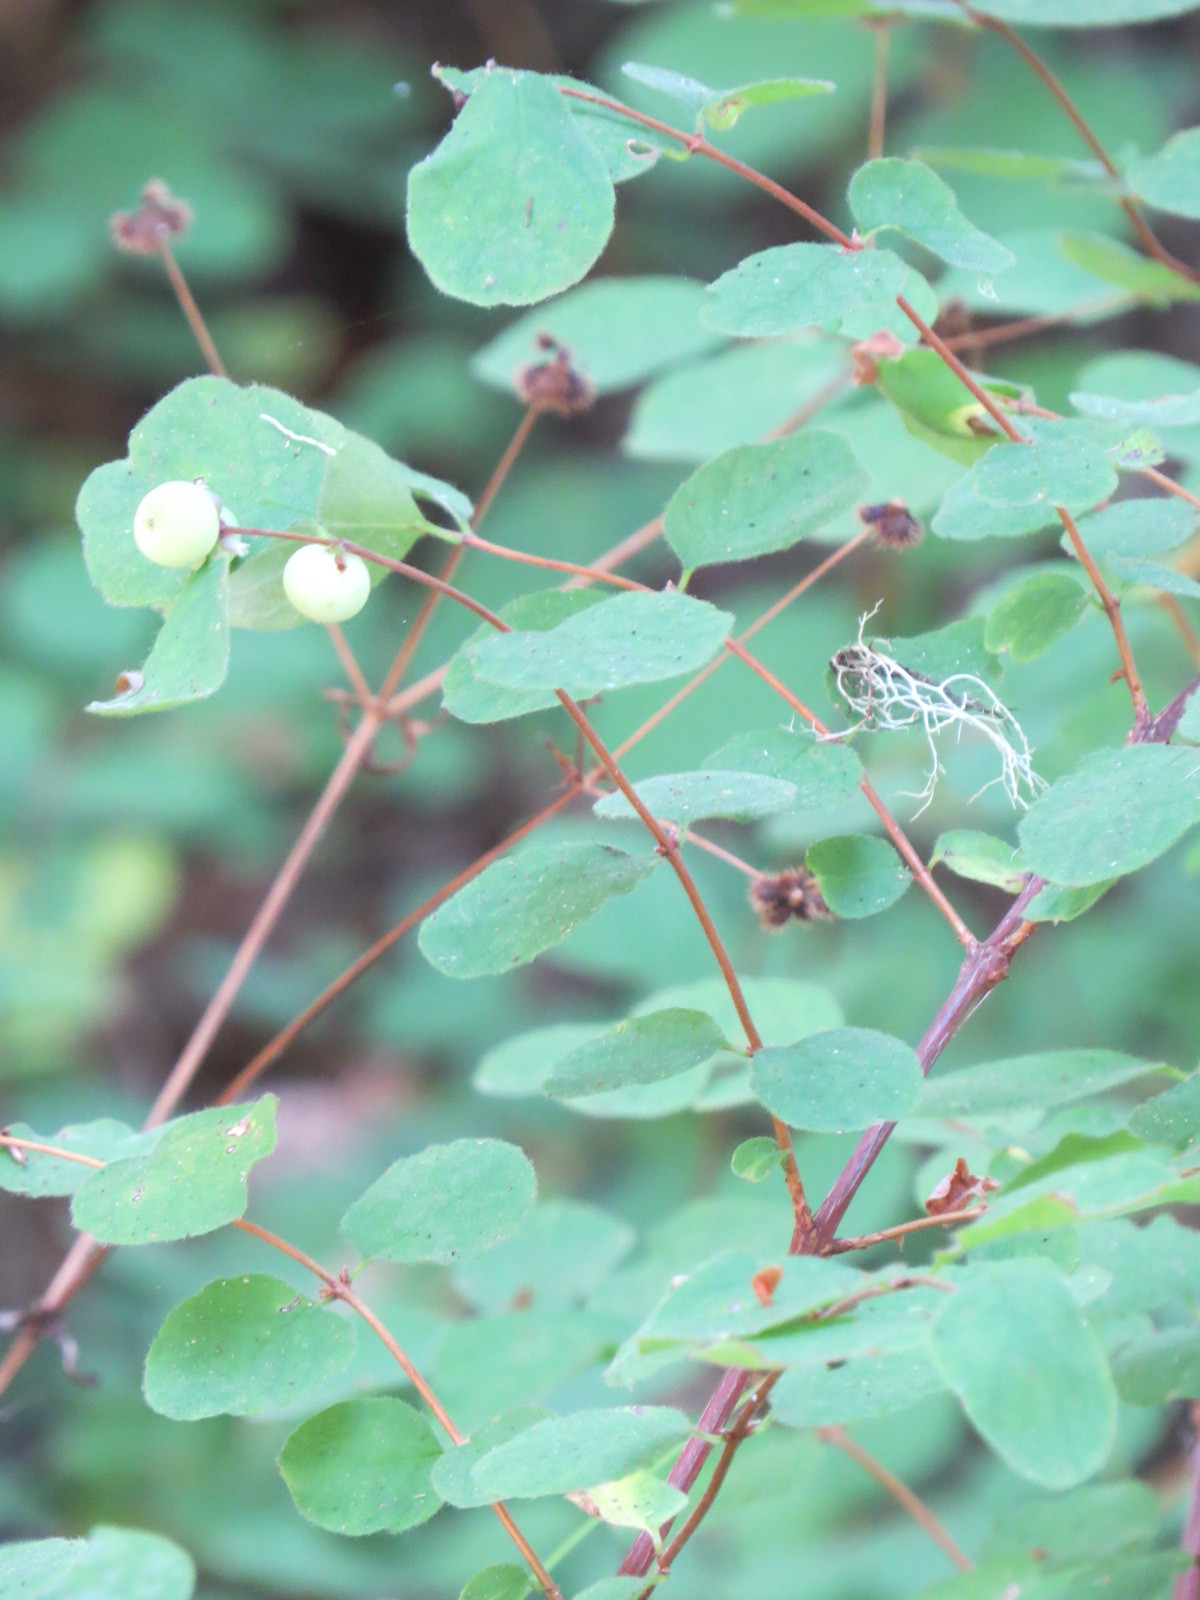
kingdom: Plantae
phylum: Tracheophyta
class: Magnoliopsida
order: Dipsacales
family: Caprifoliaceae
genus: Symphoricarpos
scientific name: Symphoricarpos mollis
